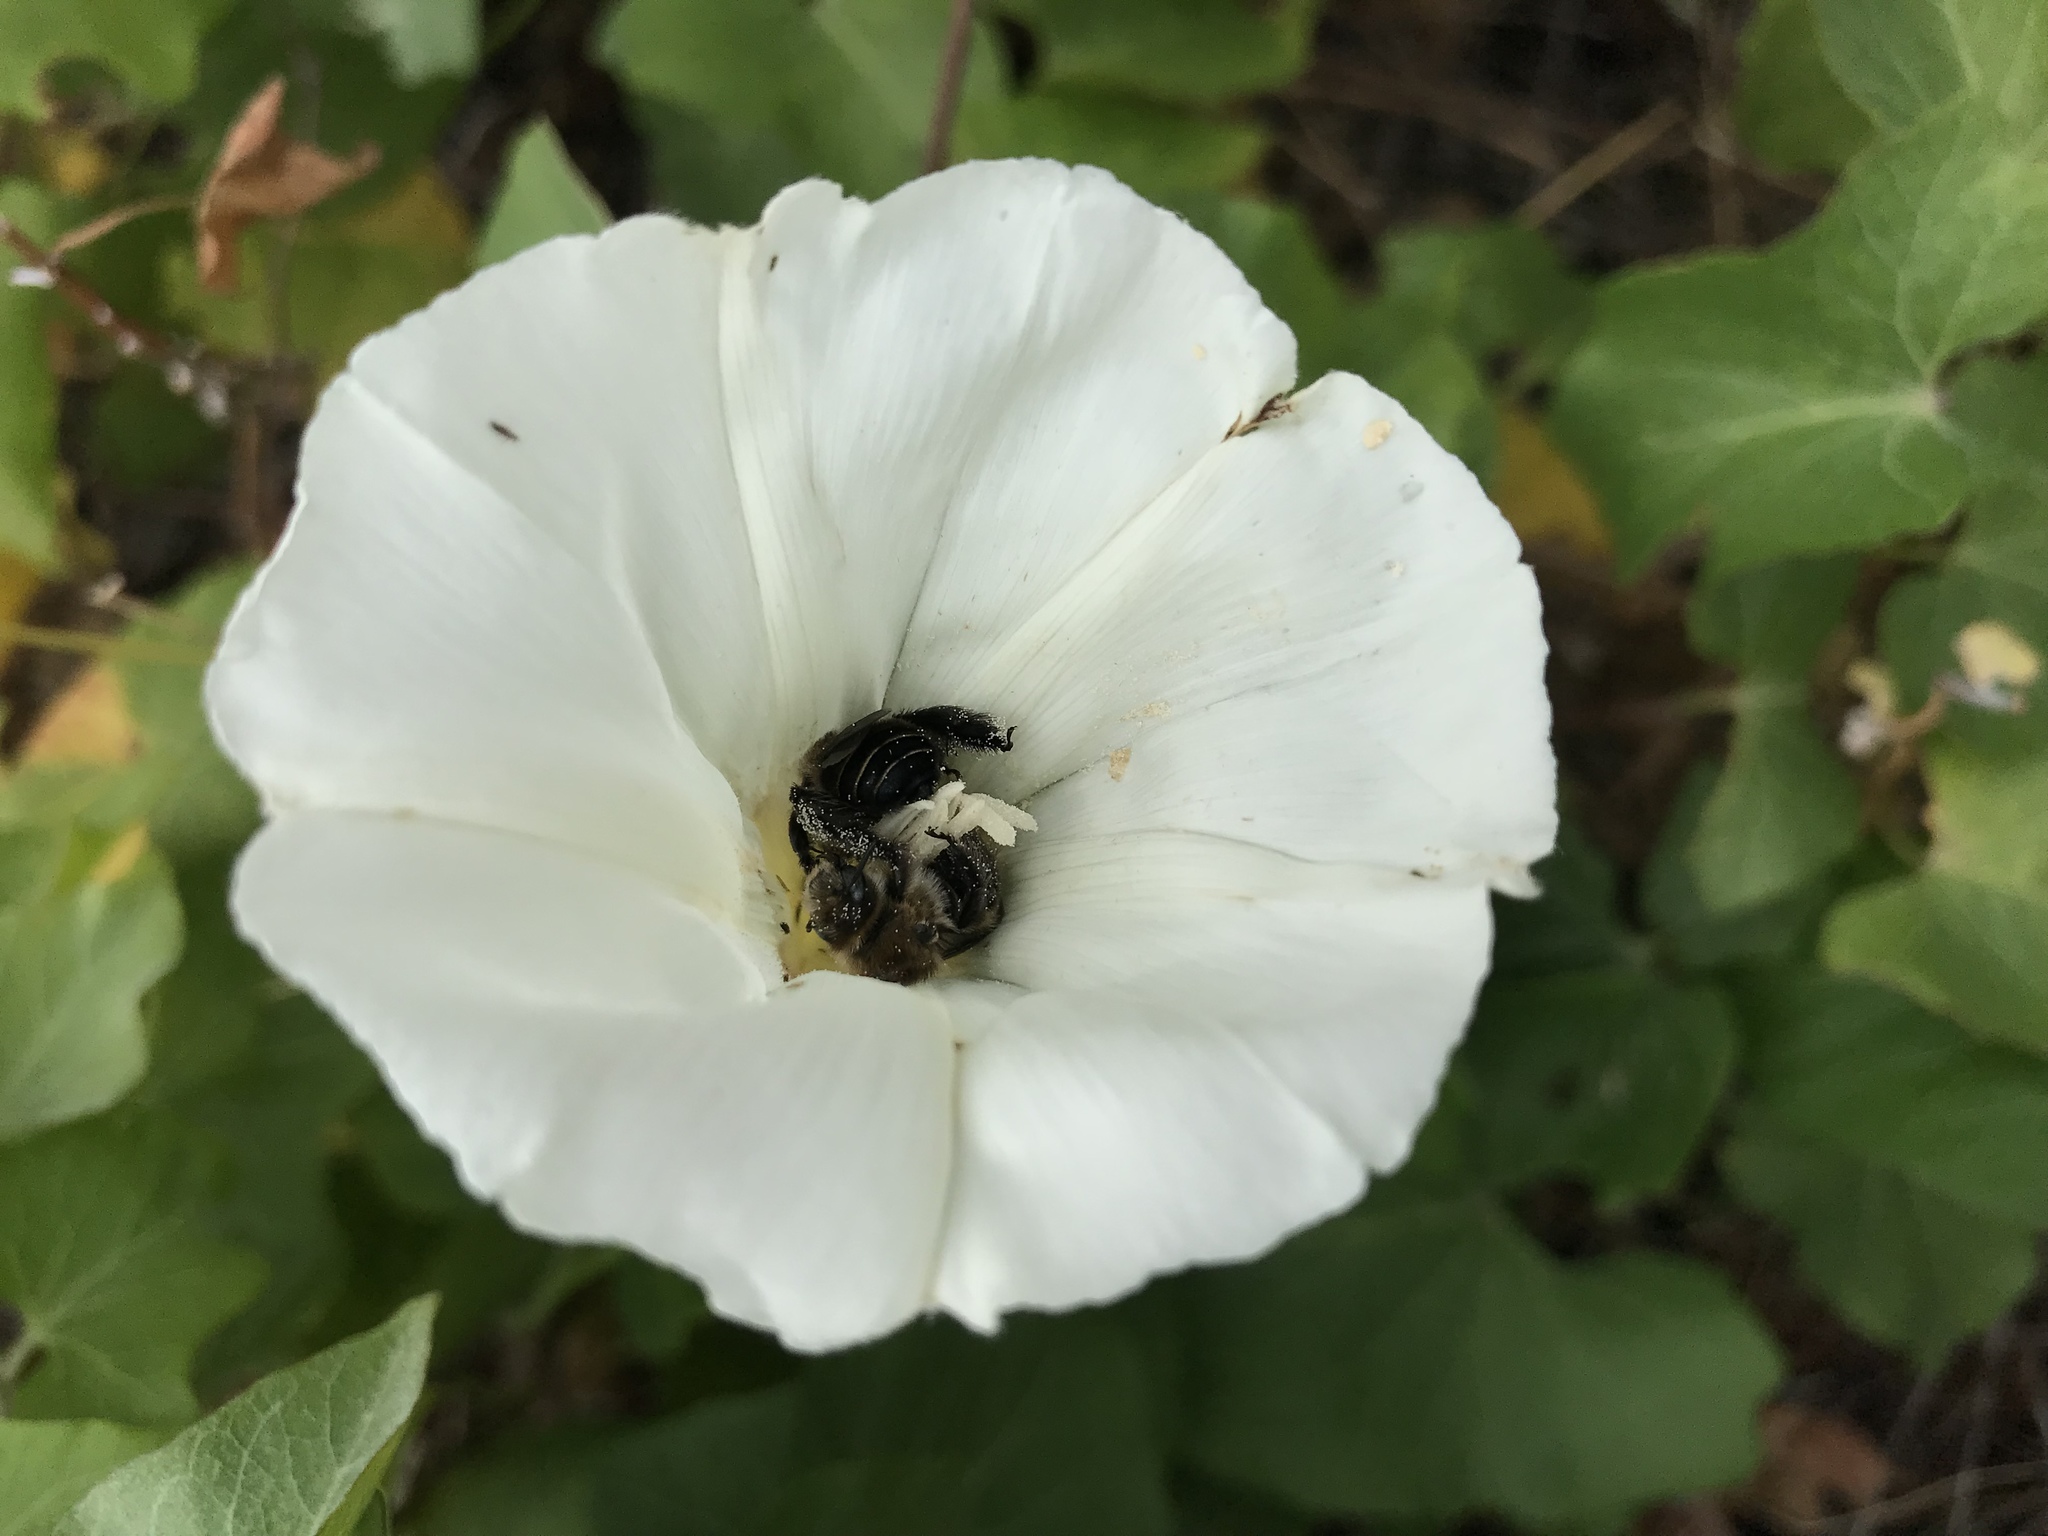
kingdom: Plantae
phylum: Tracheophyta
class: Magnoliopsida
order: Solanales
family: Convolvulaceae
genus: Calystegia
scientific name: Calystegia macrostegia
